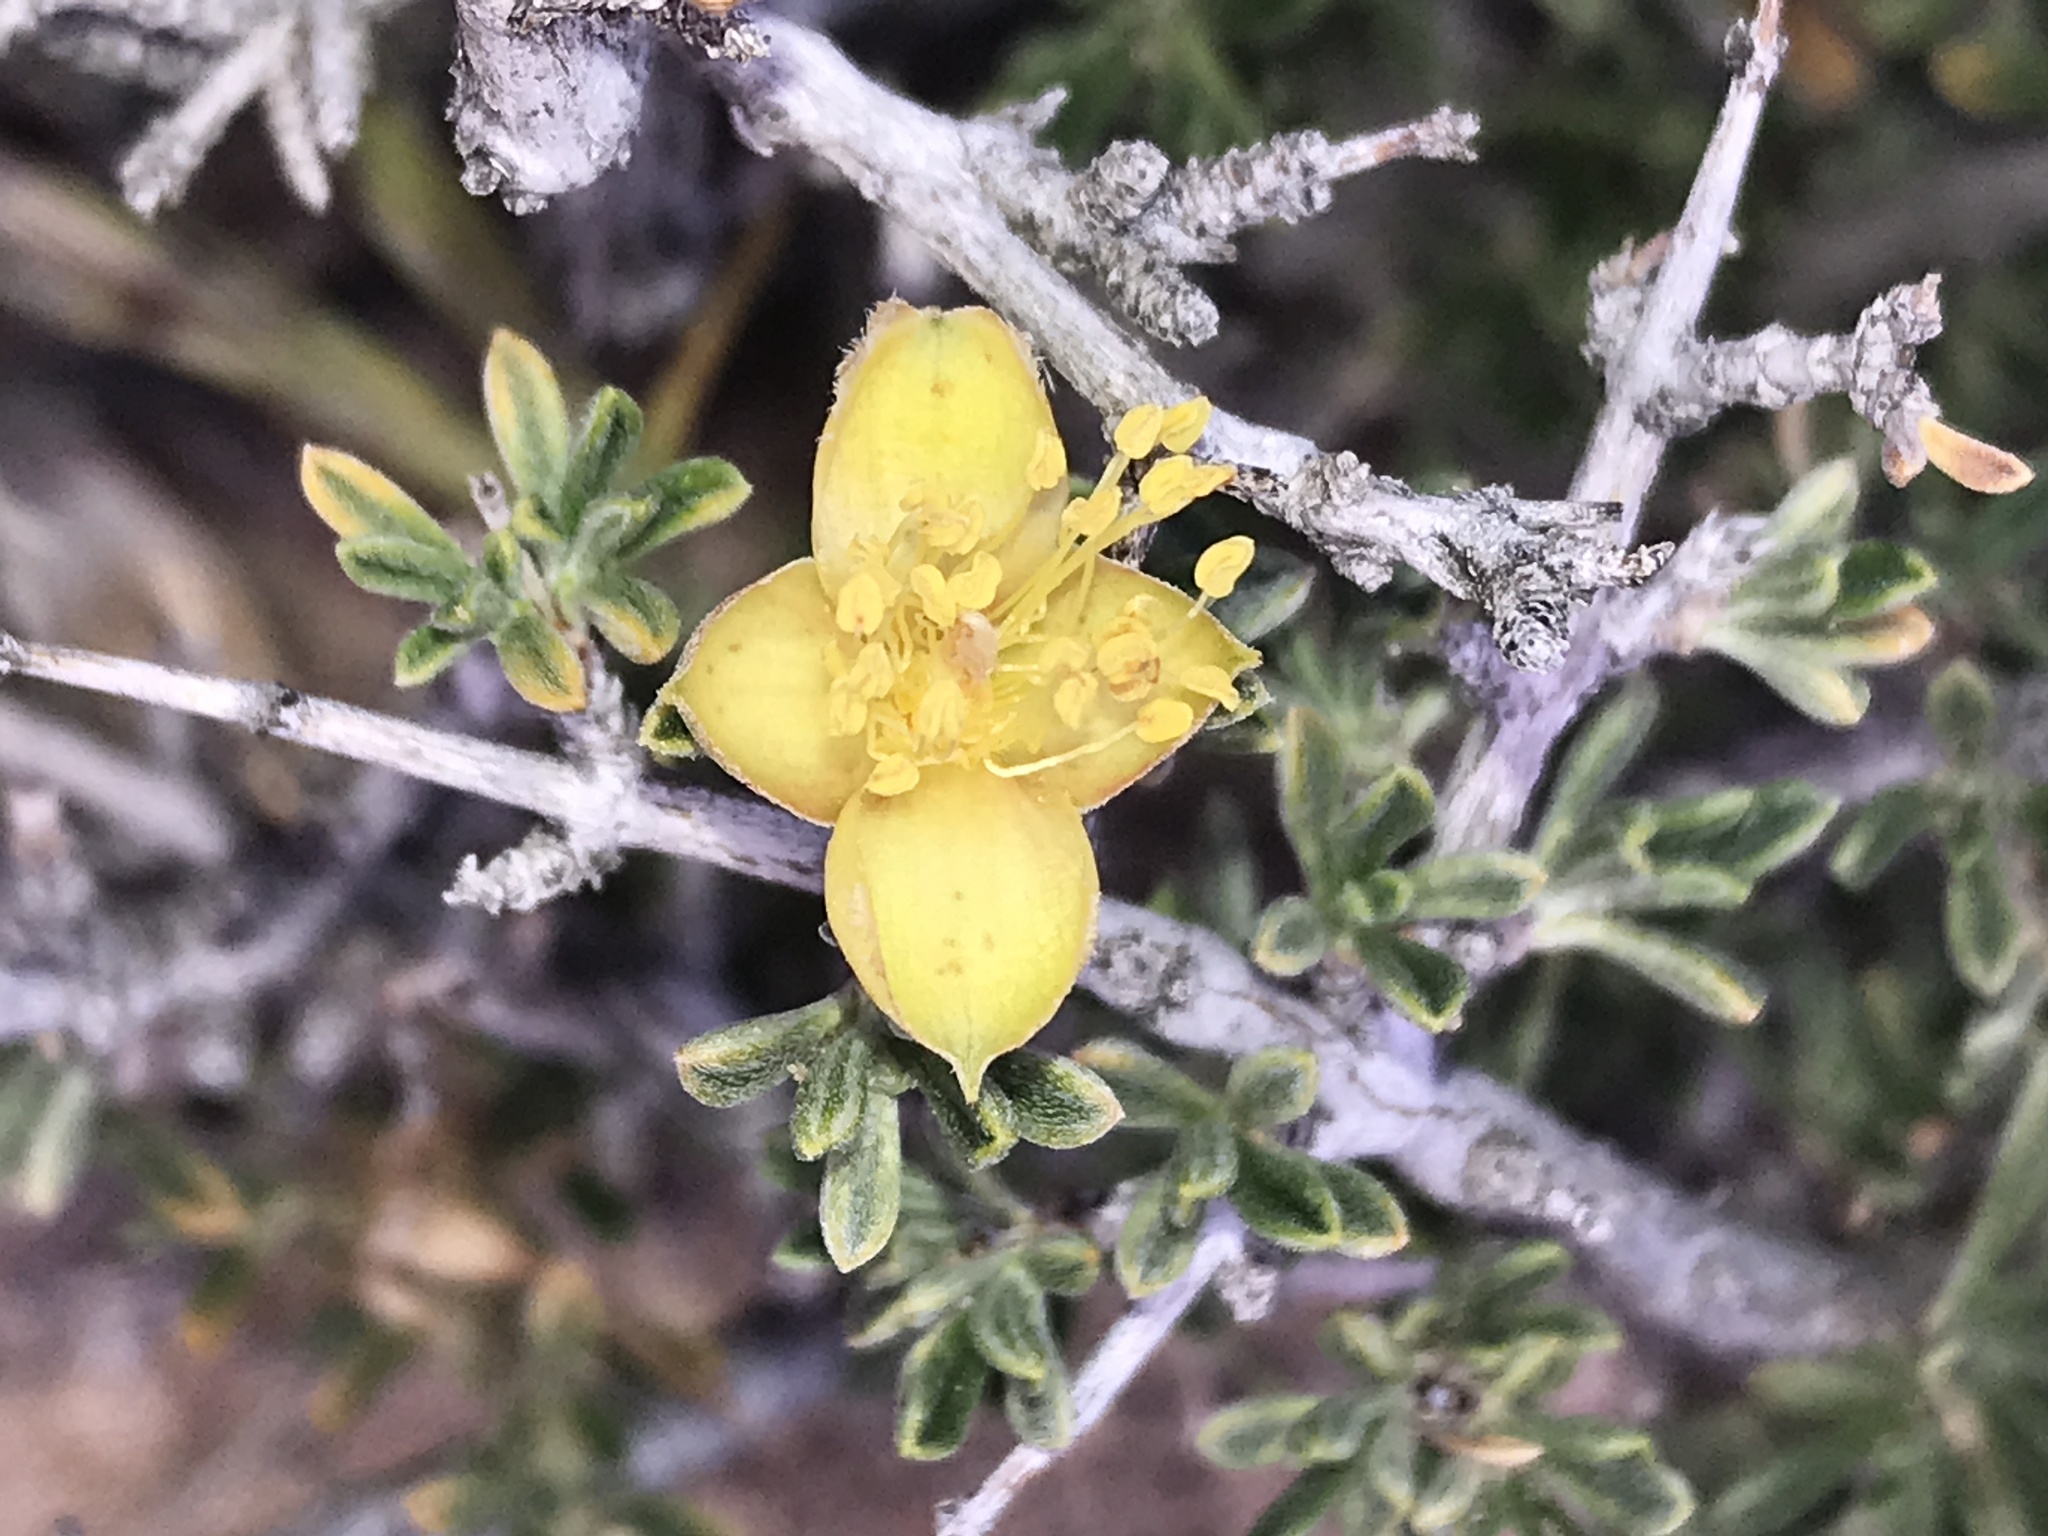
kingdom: Plantae
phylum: Tracheophyta
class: Magnoliopsida
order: Rosales
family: Rosaceae
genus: Coleogyne
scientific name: Coleogyne ramosissima
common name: Blackbrush
